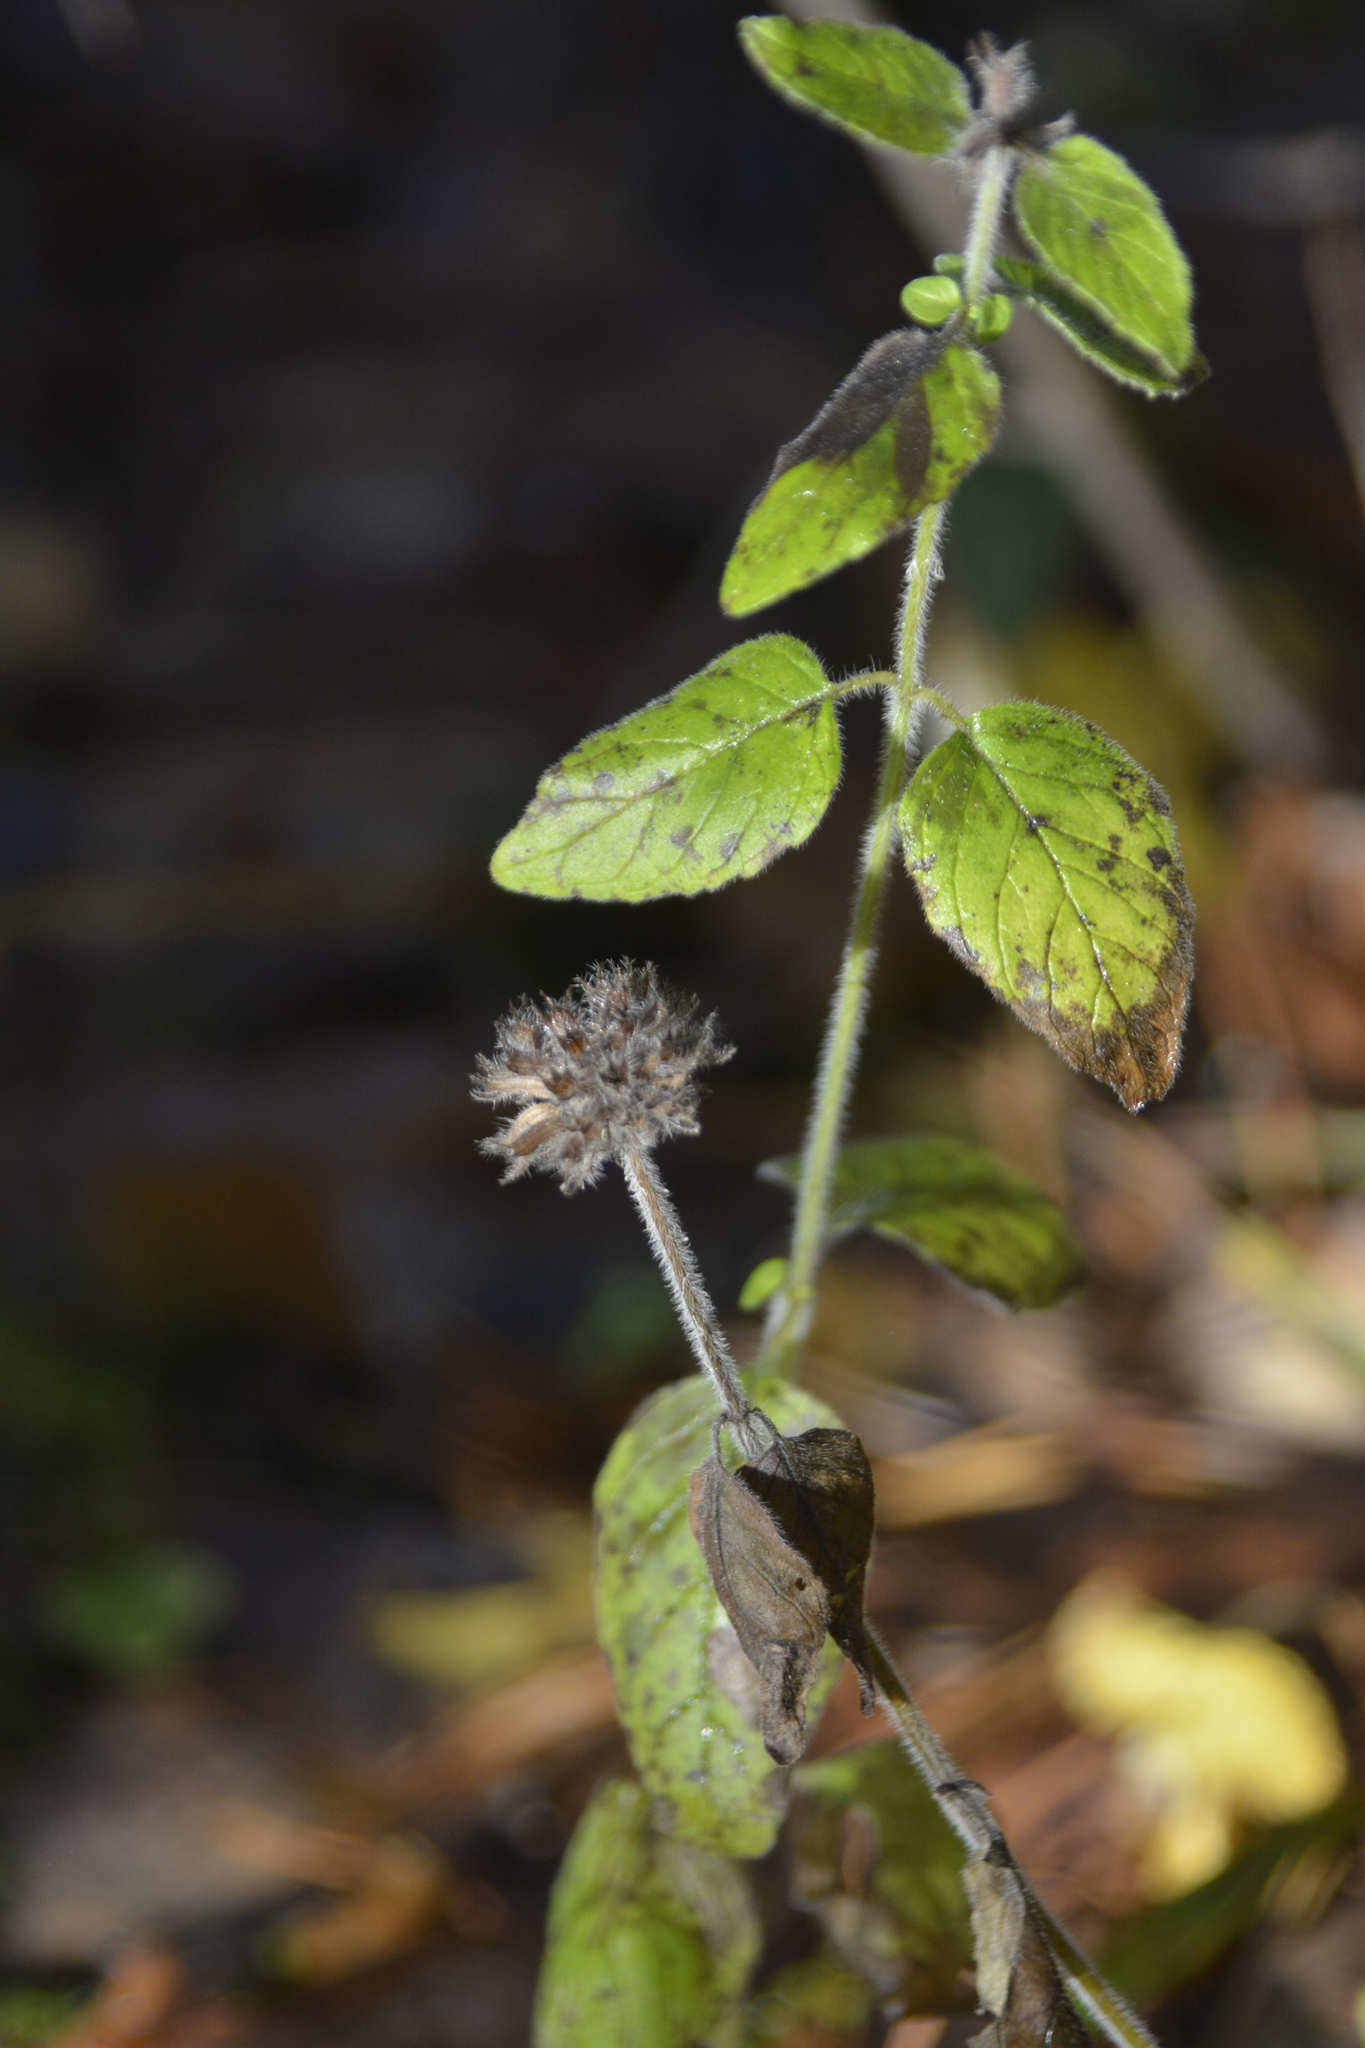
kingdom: Plantae
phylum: Tracheophyta
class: Magnoliopsida
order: Lamiales
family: Lamiaceae
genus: Clinopodium
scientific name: Clinopodium vulgare
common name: Wild basil
